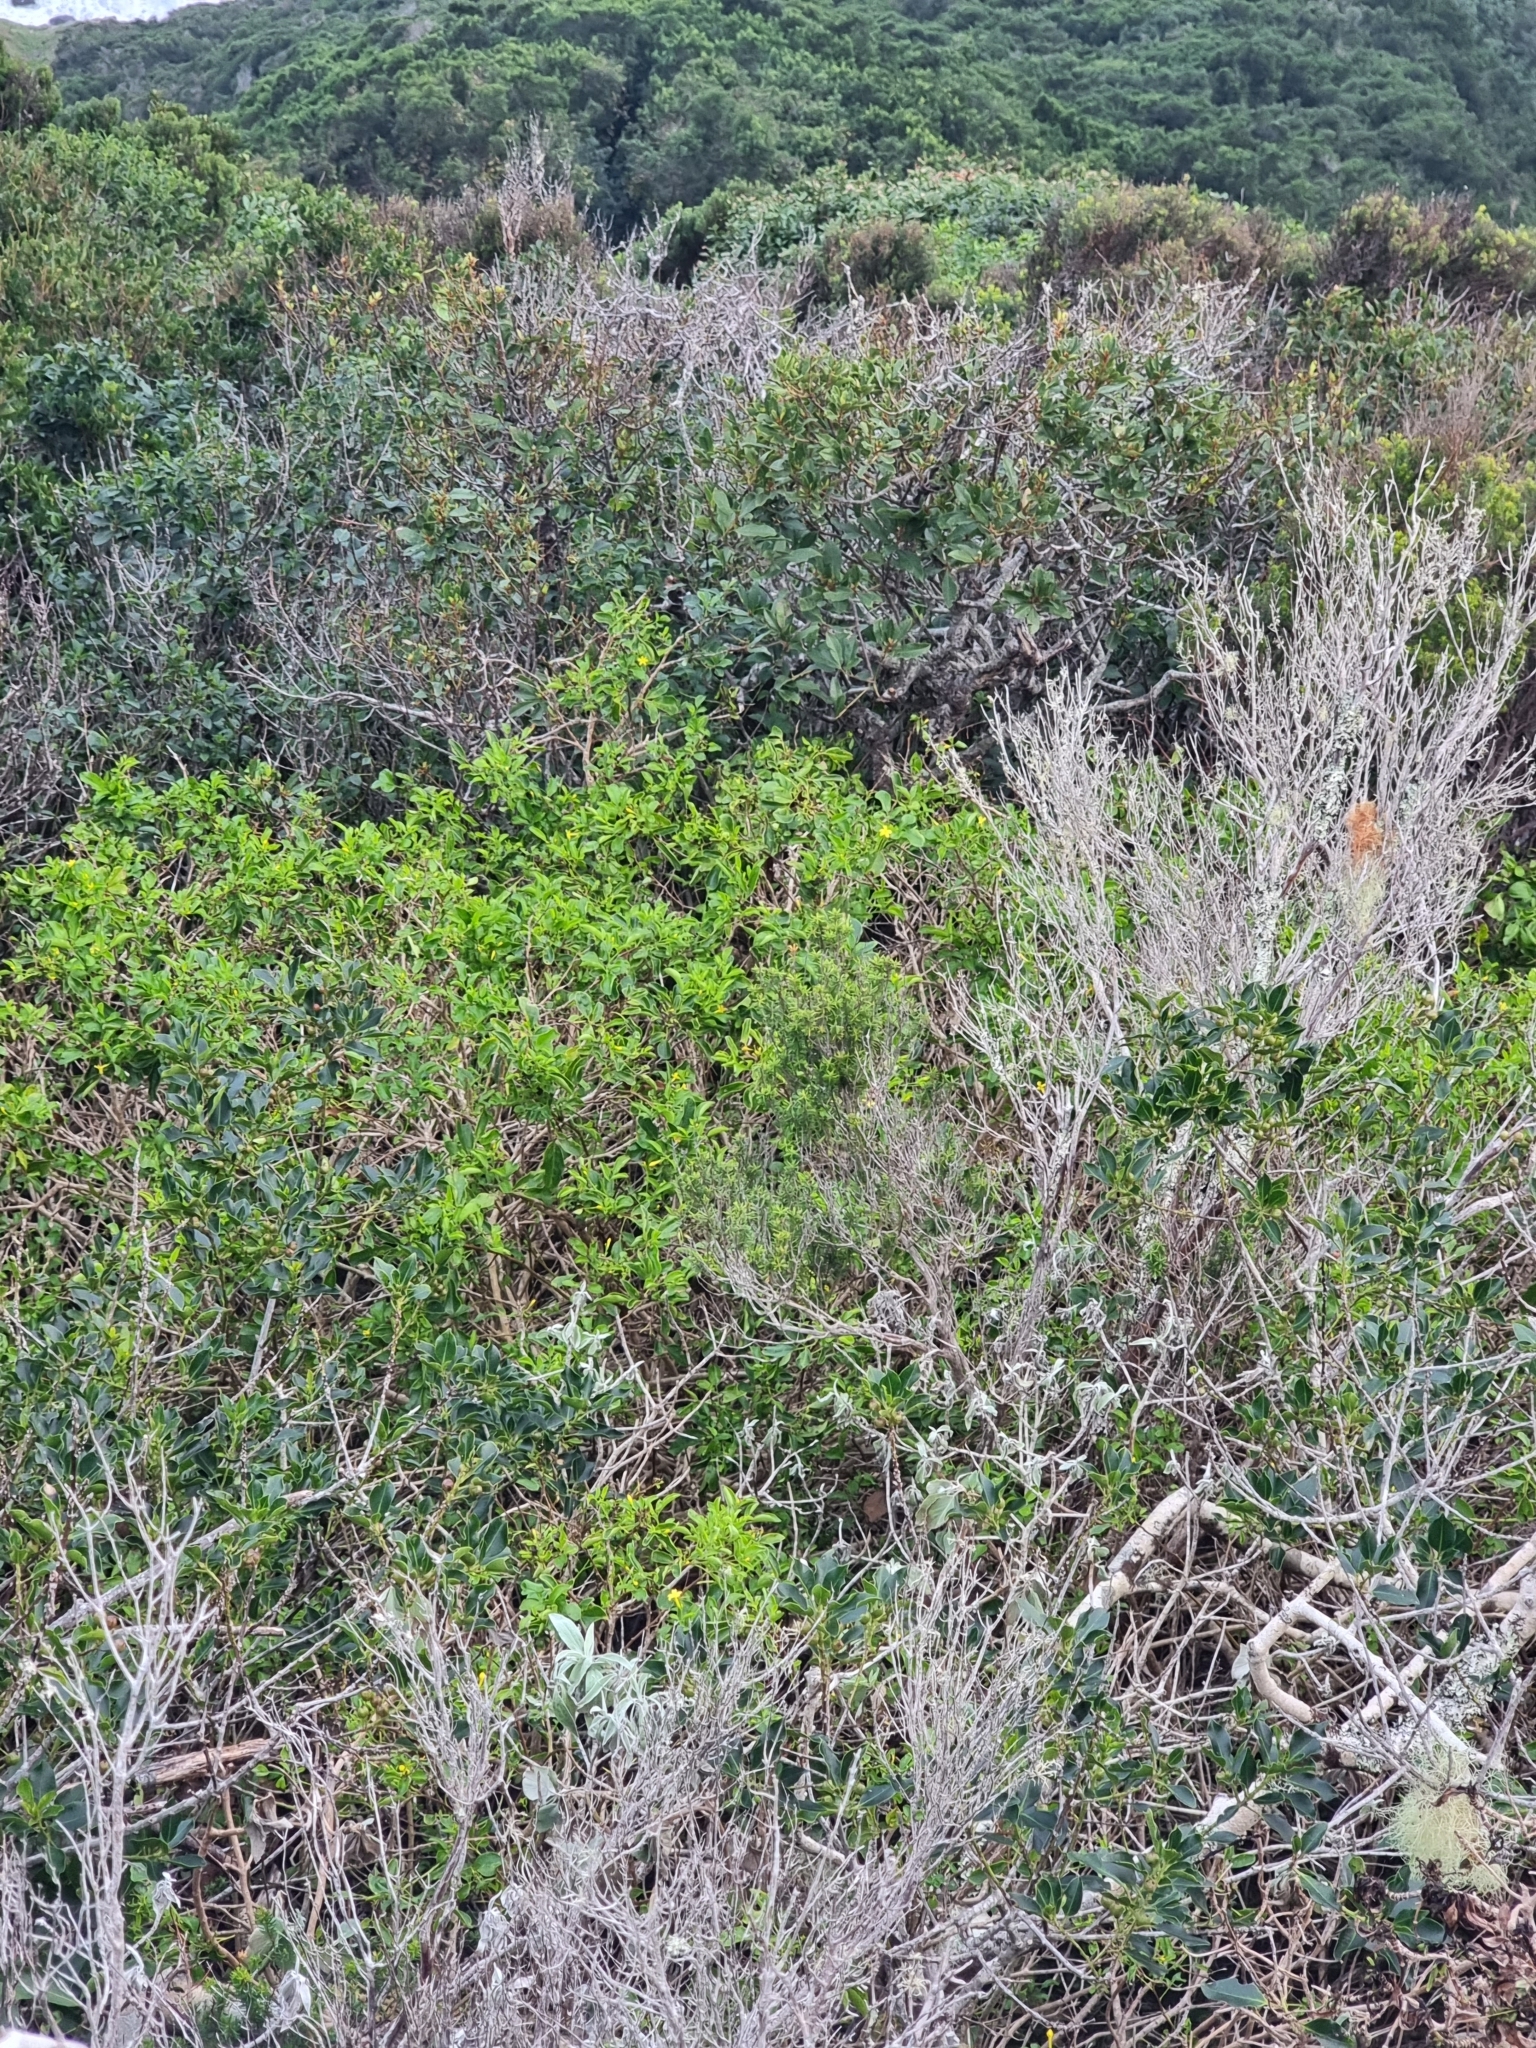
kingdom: Plantae
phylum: Tracheophyta
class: Magnoliopsida
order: Lamiales
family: Oleaceae
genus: Chrysojasminum
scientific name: Chrysojasminum odoratissimum
